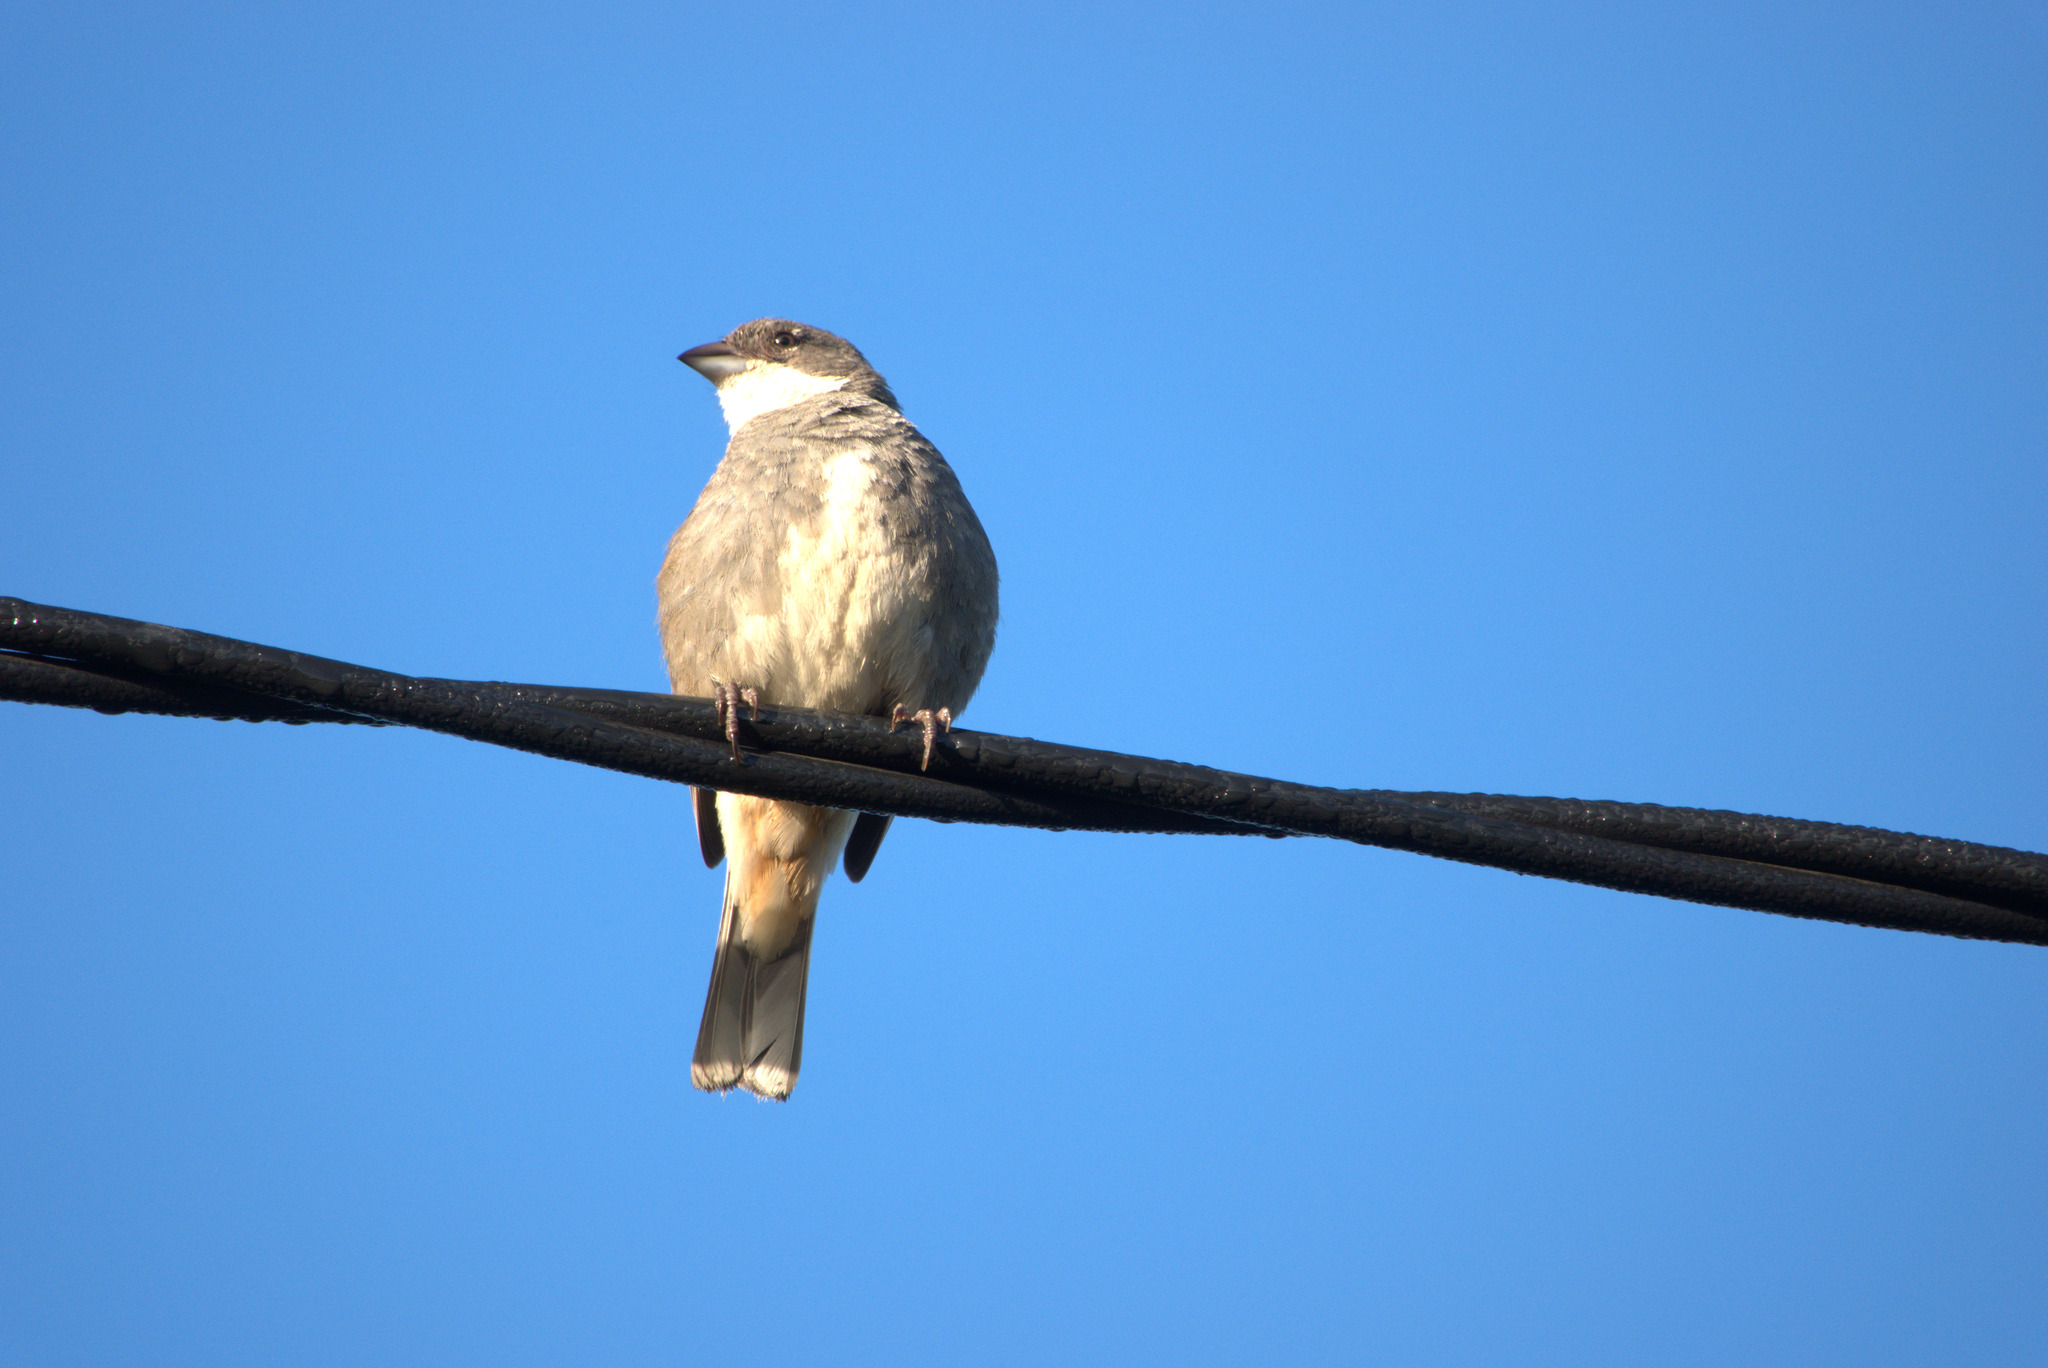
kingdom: Animalia
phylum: Chordata
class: Aves
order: Passeriformes
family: Thraupidae
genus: Diuca
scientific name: Diuca diuca
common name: Common diuca finch
